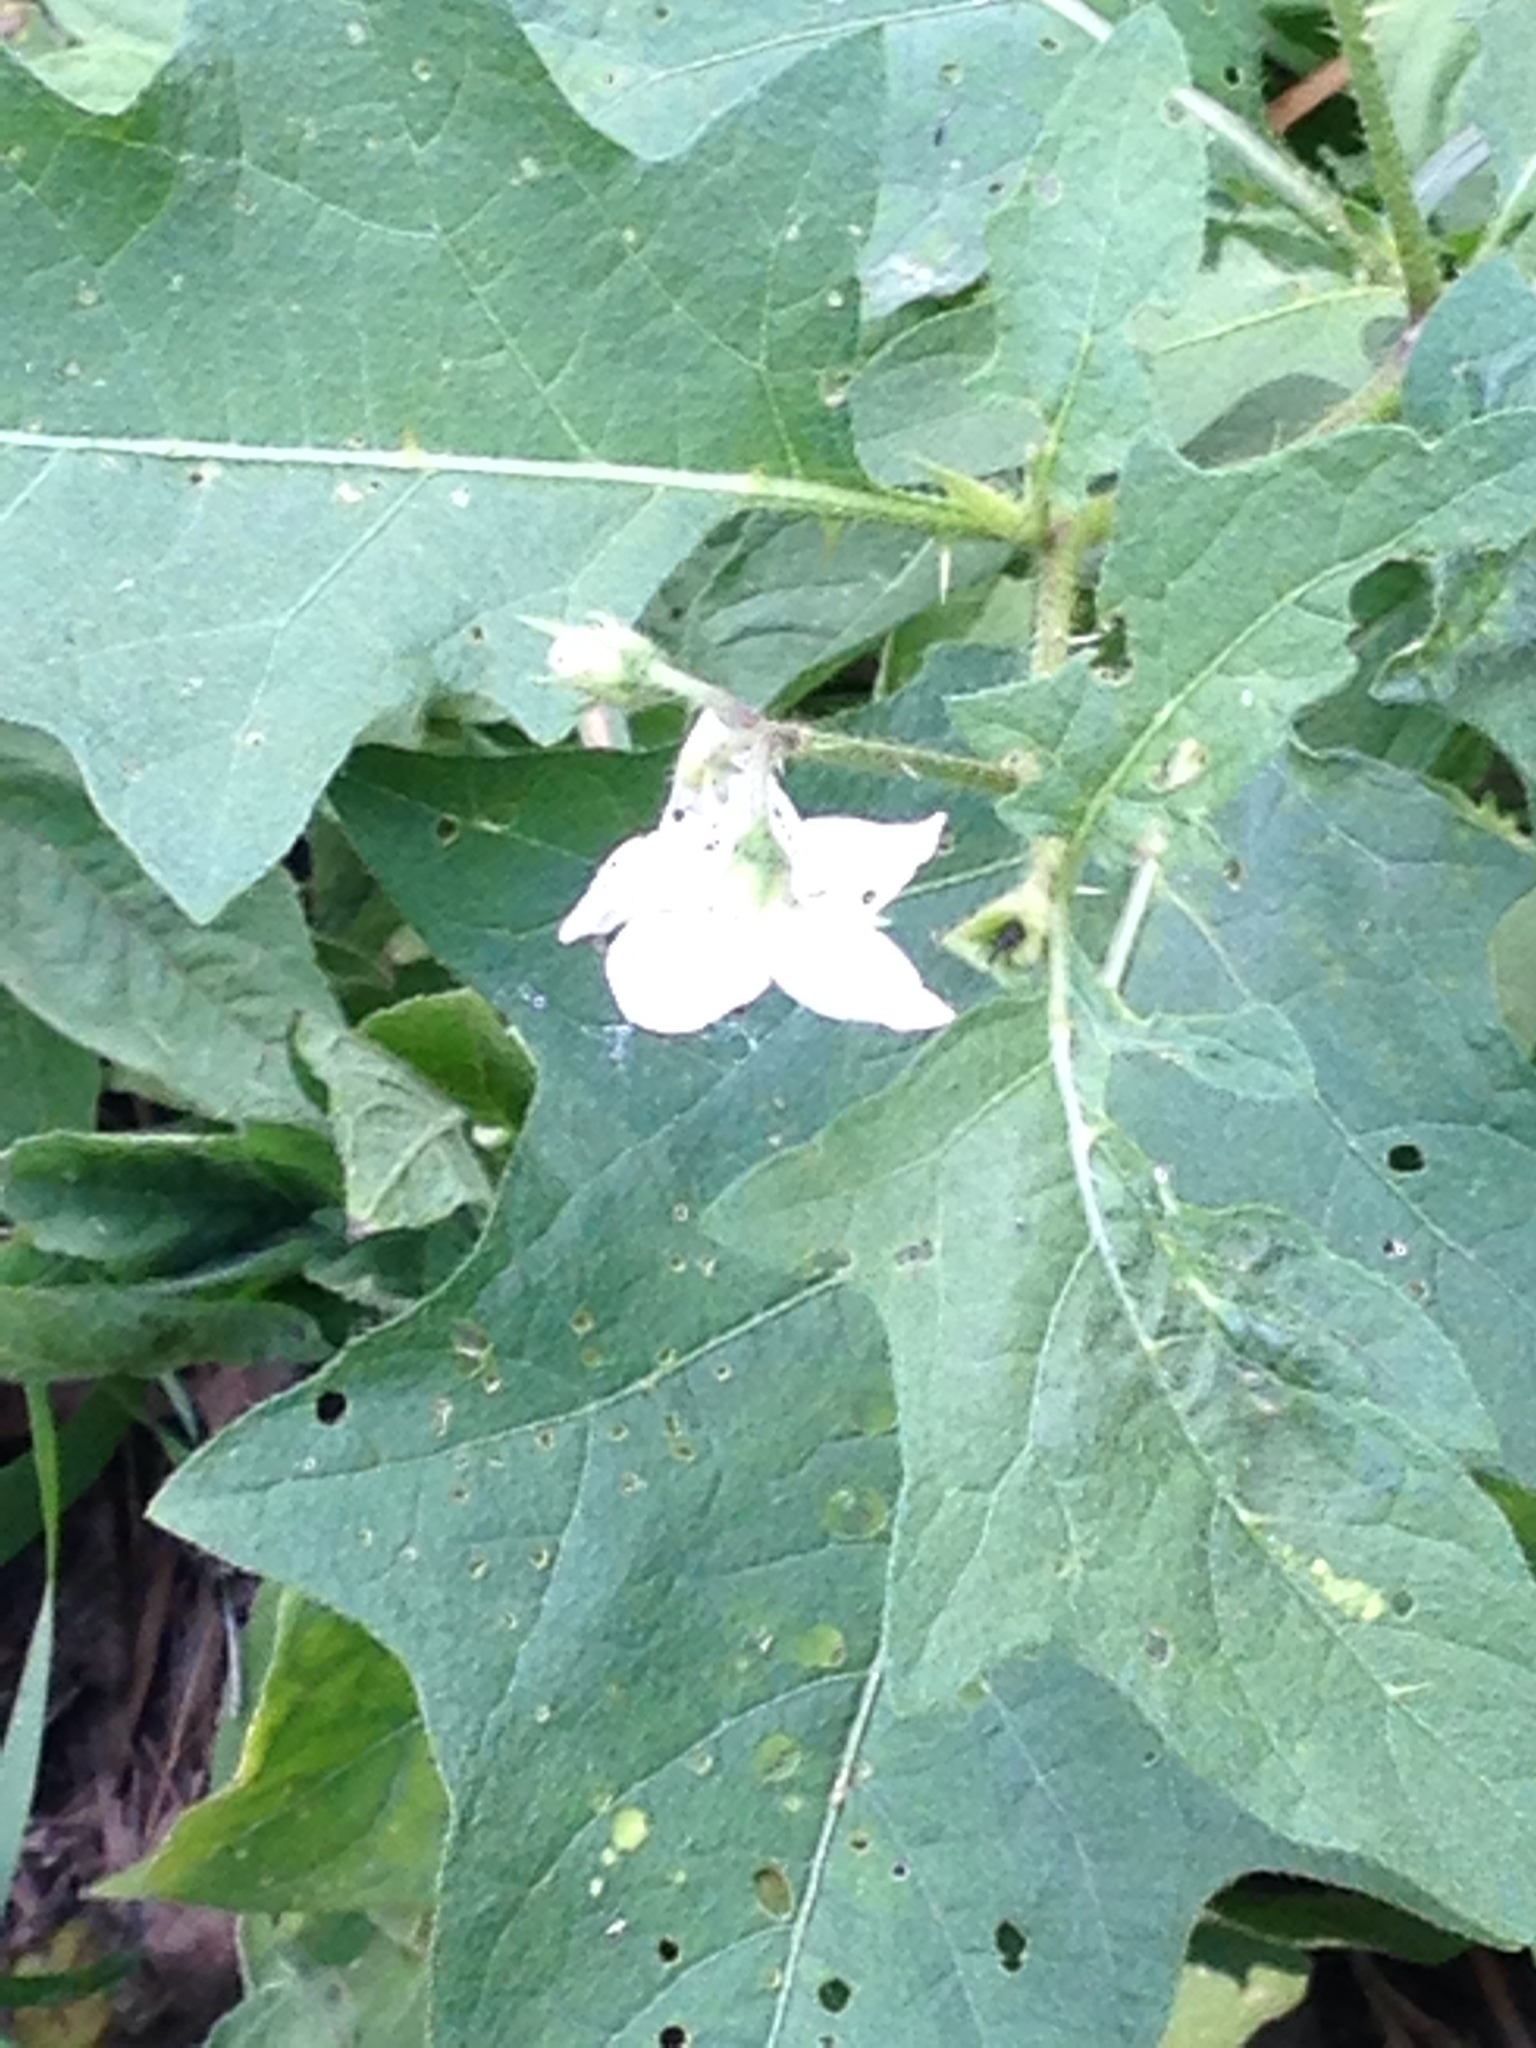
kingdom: Plantae
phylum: Tracheophyta
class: Magnoliopsida
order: Solanales
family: Solanaceae
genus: Solanum
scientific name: Solanum carolinense
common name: Horse-nettle
